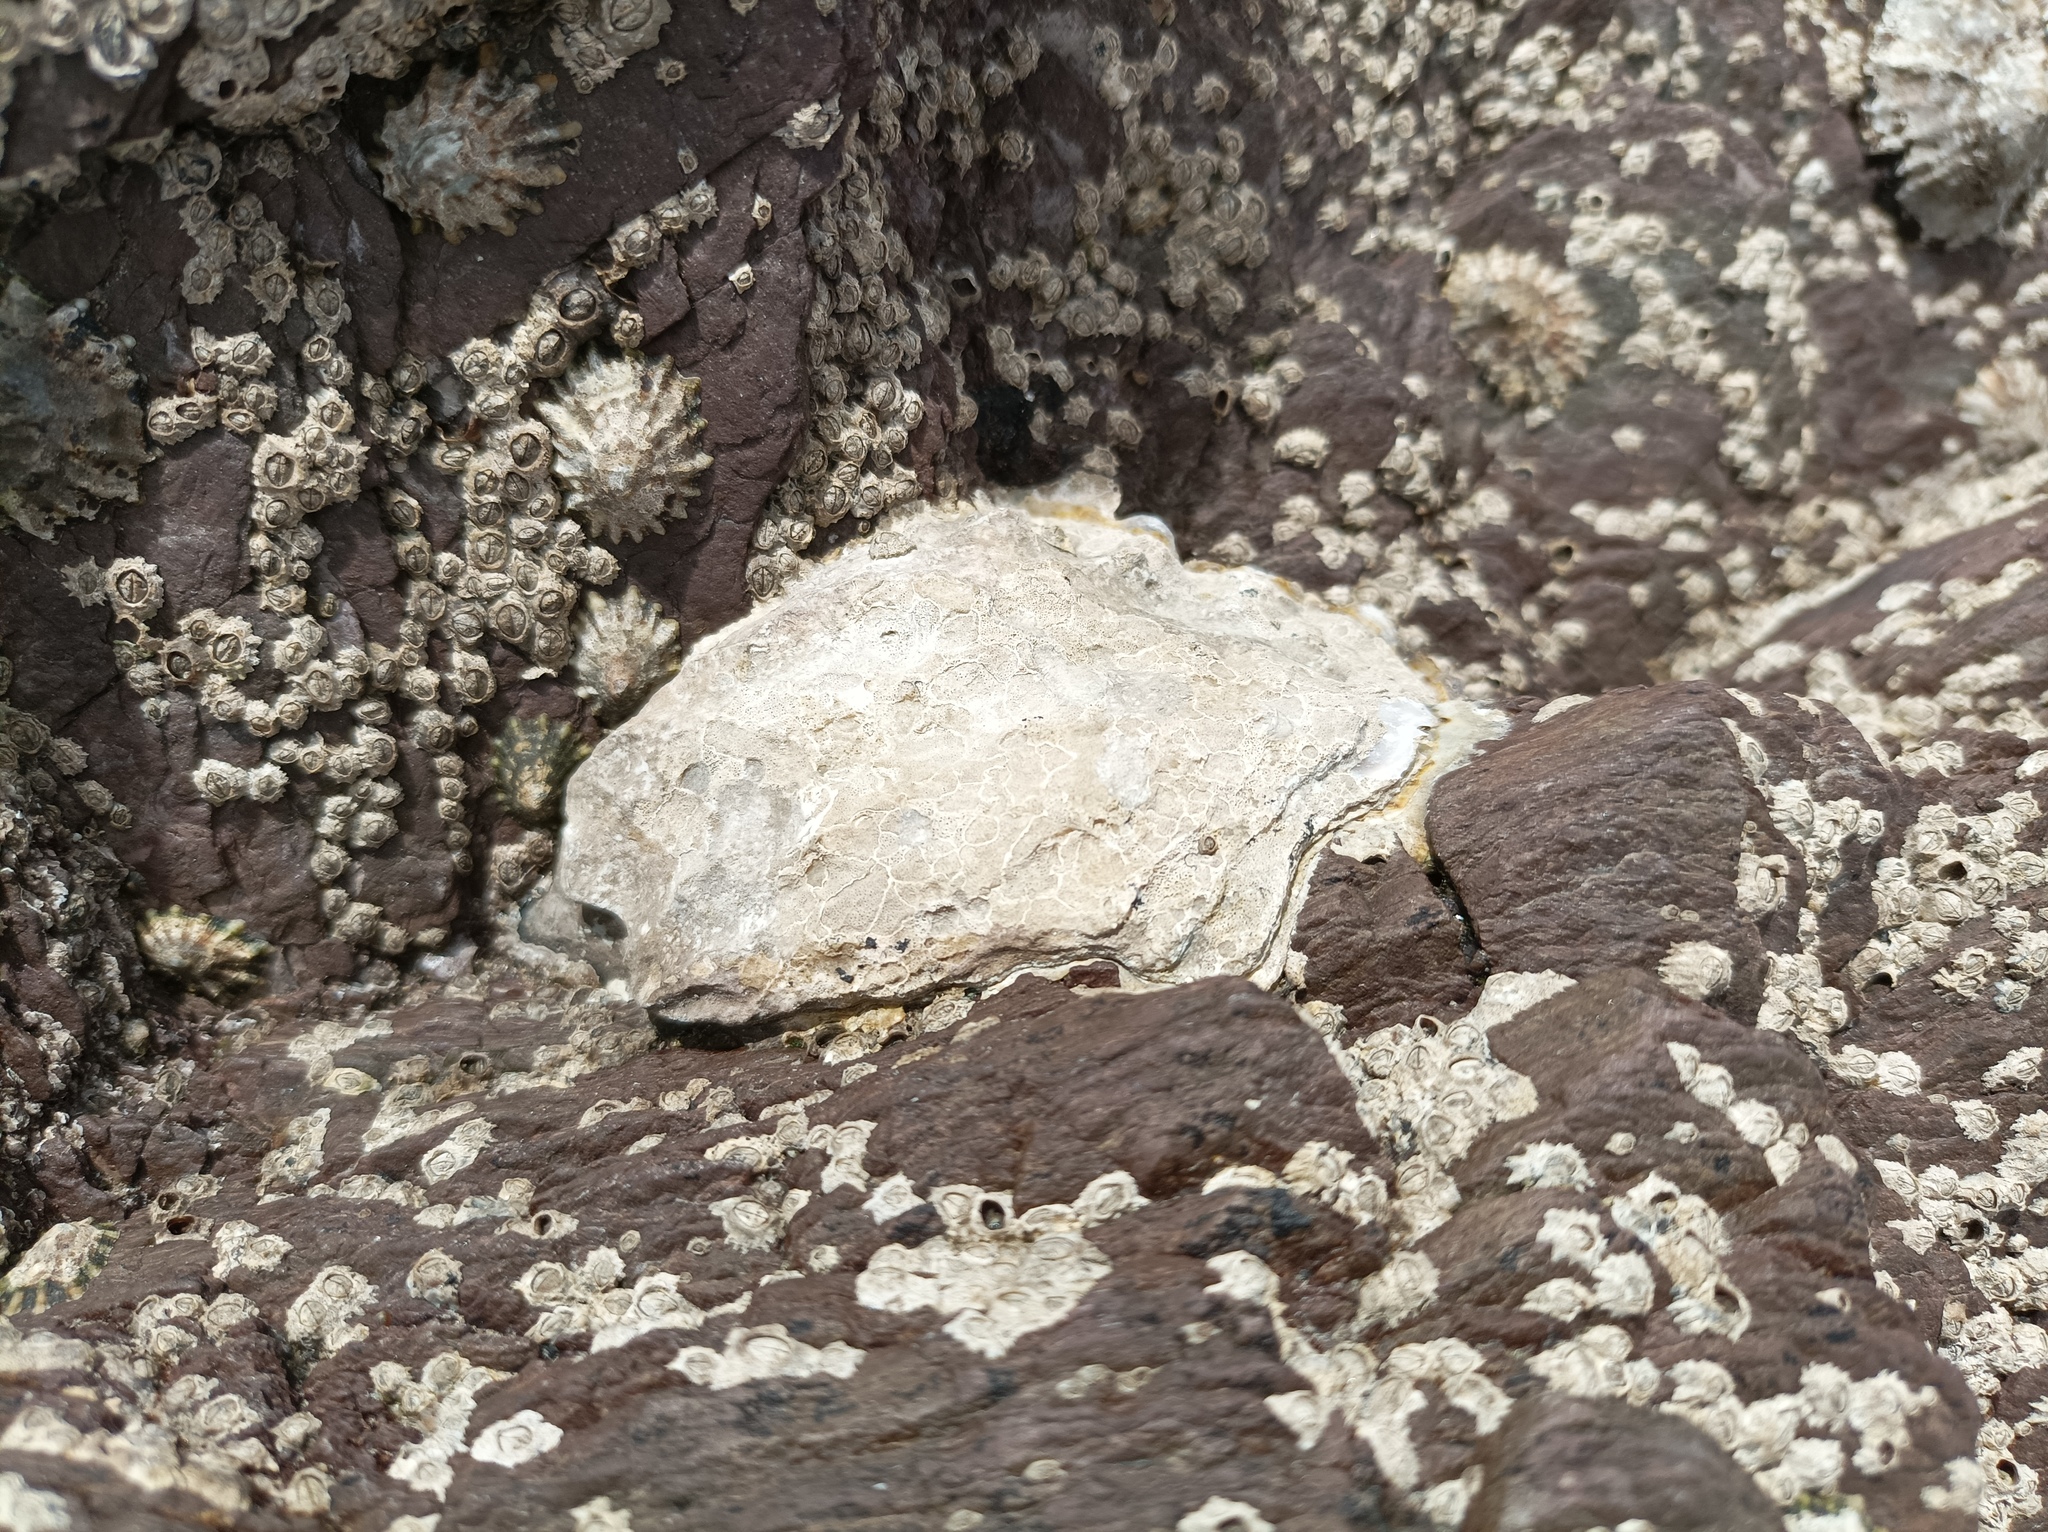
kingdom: Animalia
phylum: Mollusca
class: Bivalvia
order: Ostreida
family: Ostreidae
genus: Magallana
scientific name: Magallana gigas
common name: Pacific oyster
